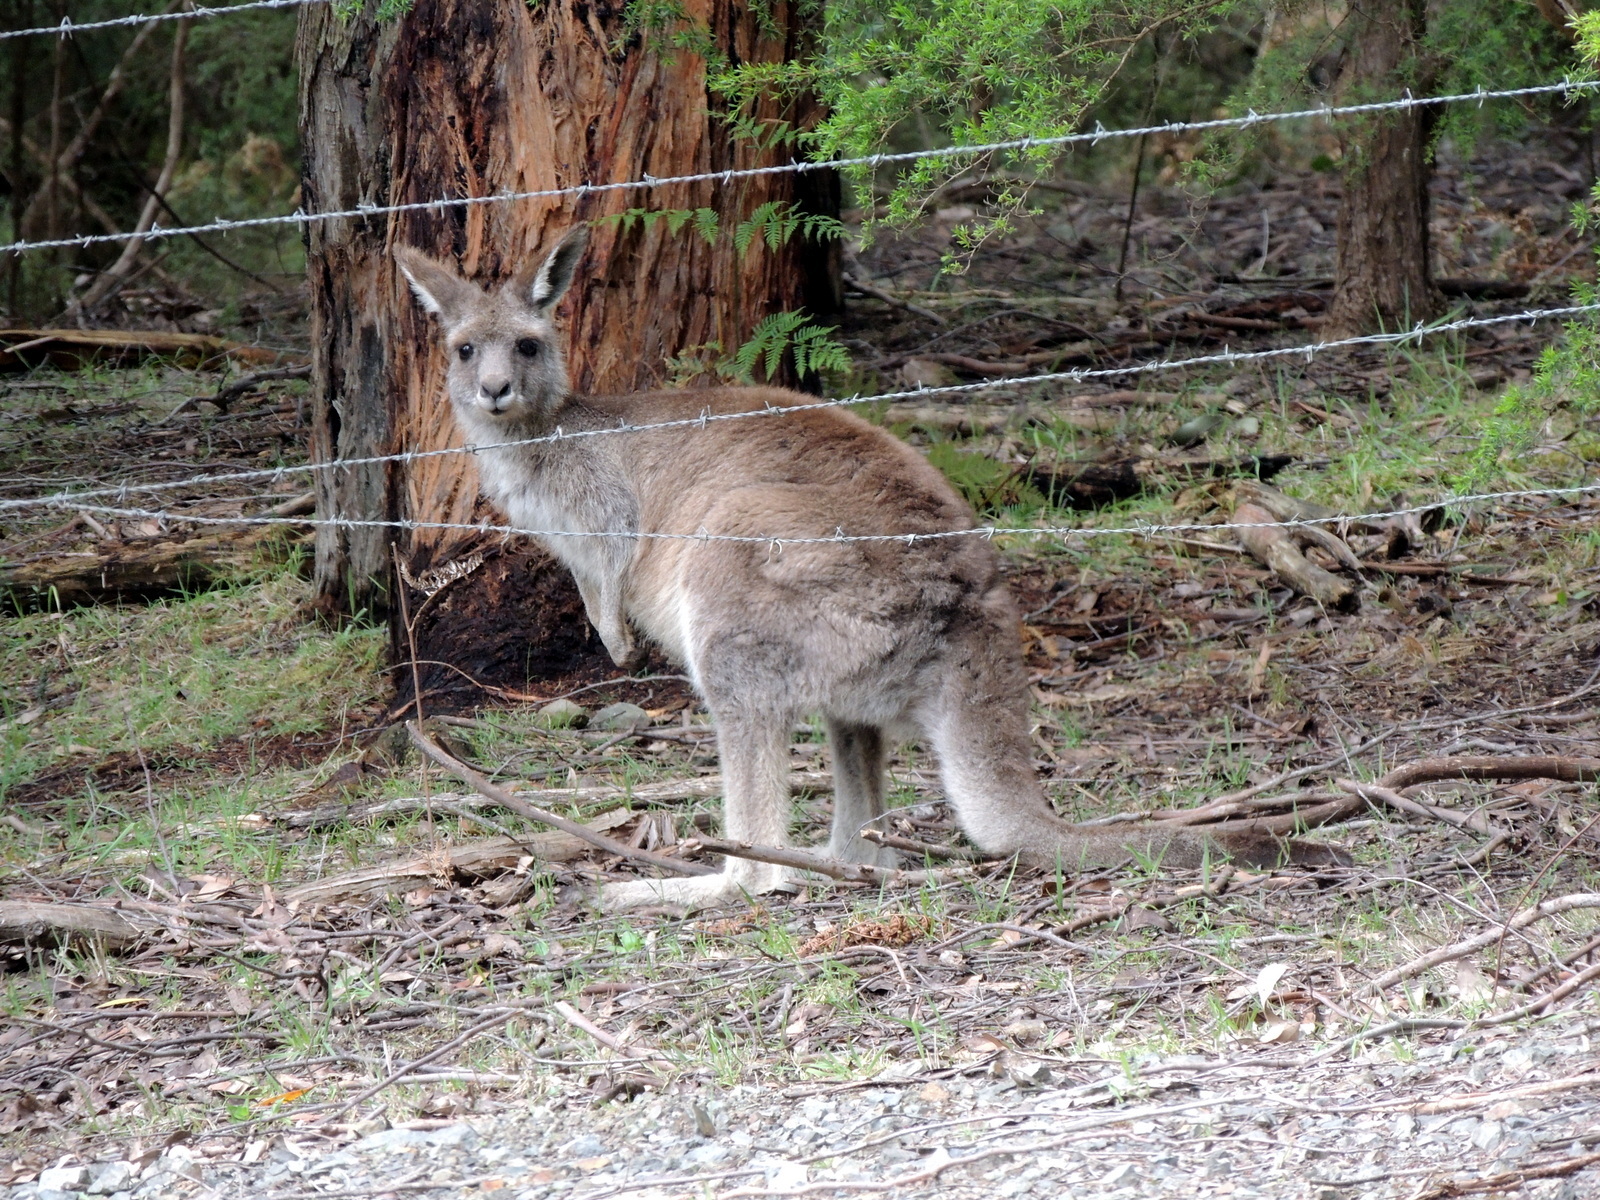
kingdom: Animalia
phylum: Chordata
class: Mammalia
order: Diprotodontia
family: Macropodidae
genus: Macropus
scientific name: Macropus giganteus
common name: Eastern grey kangaroo
